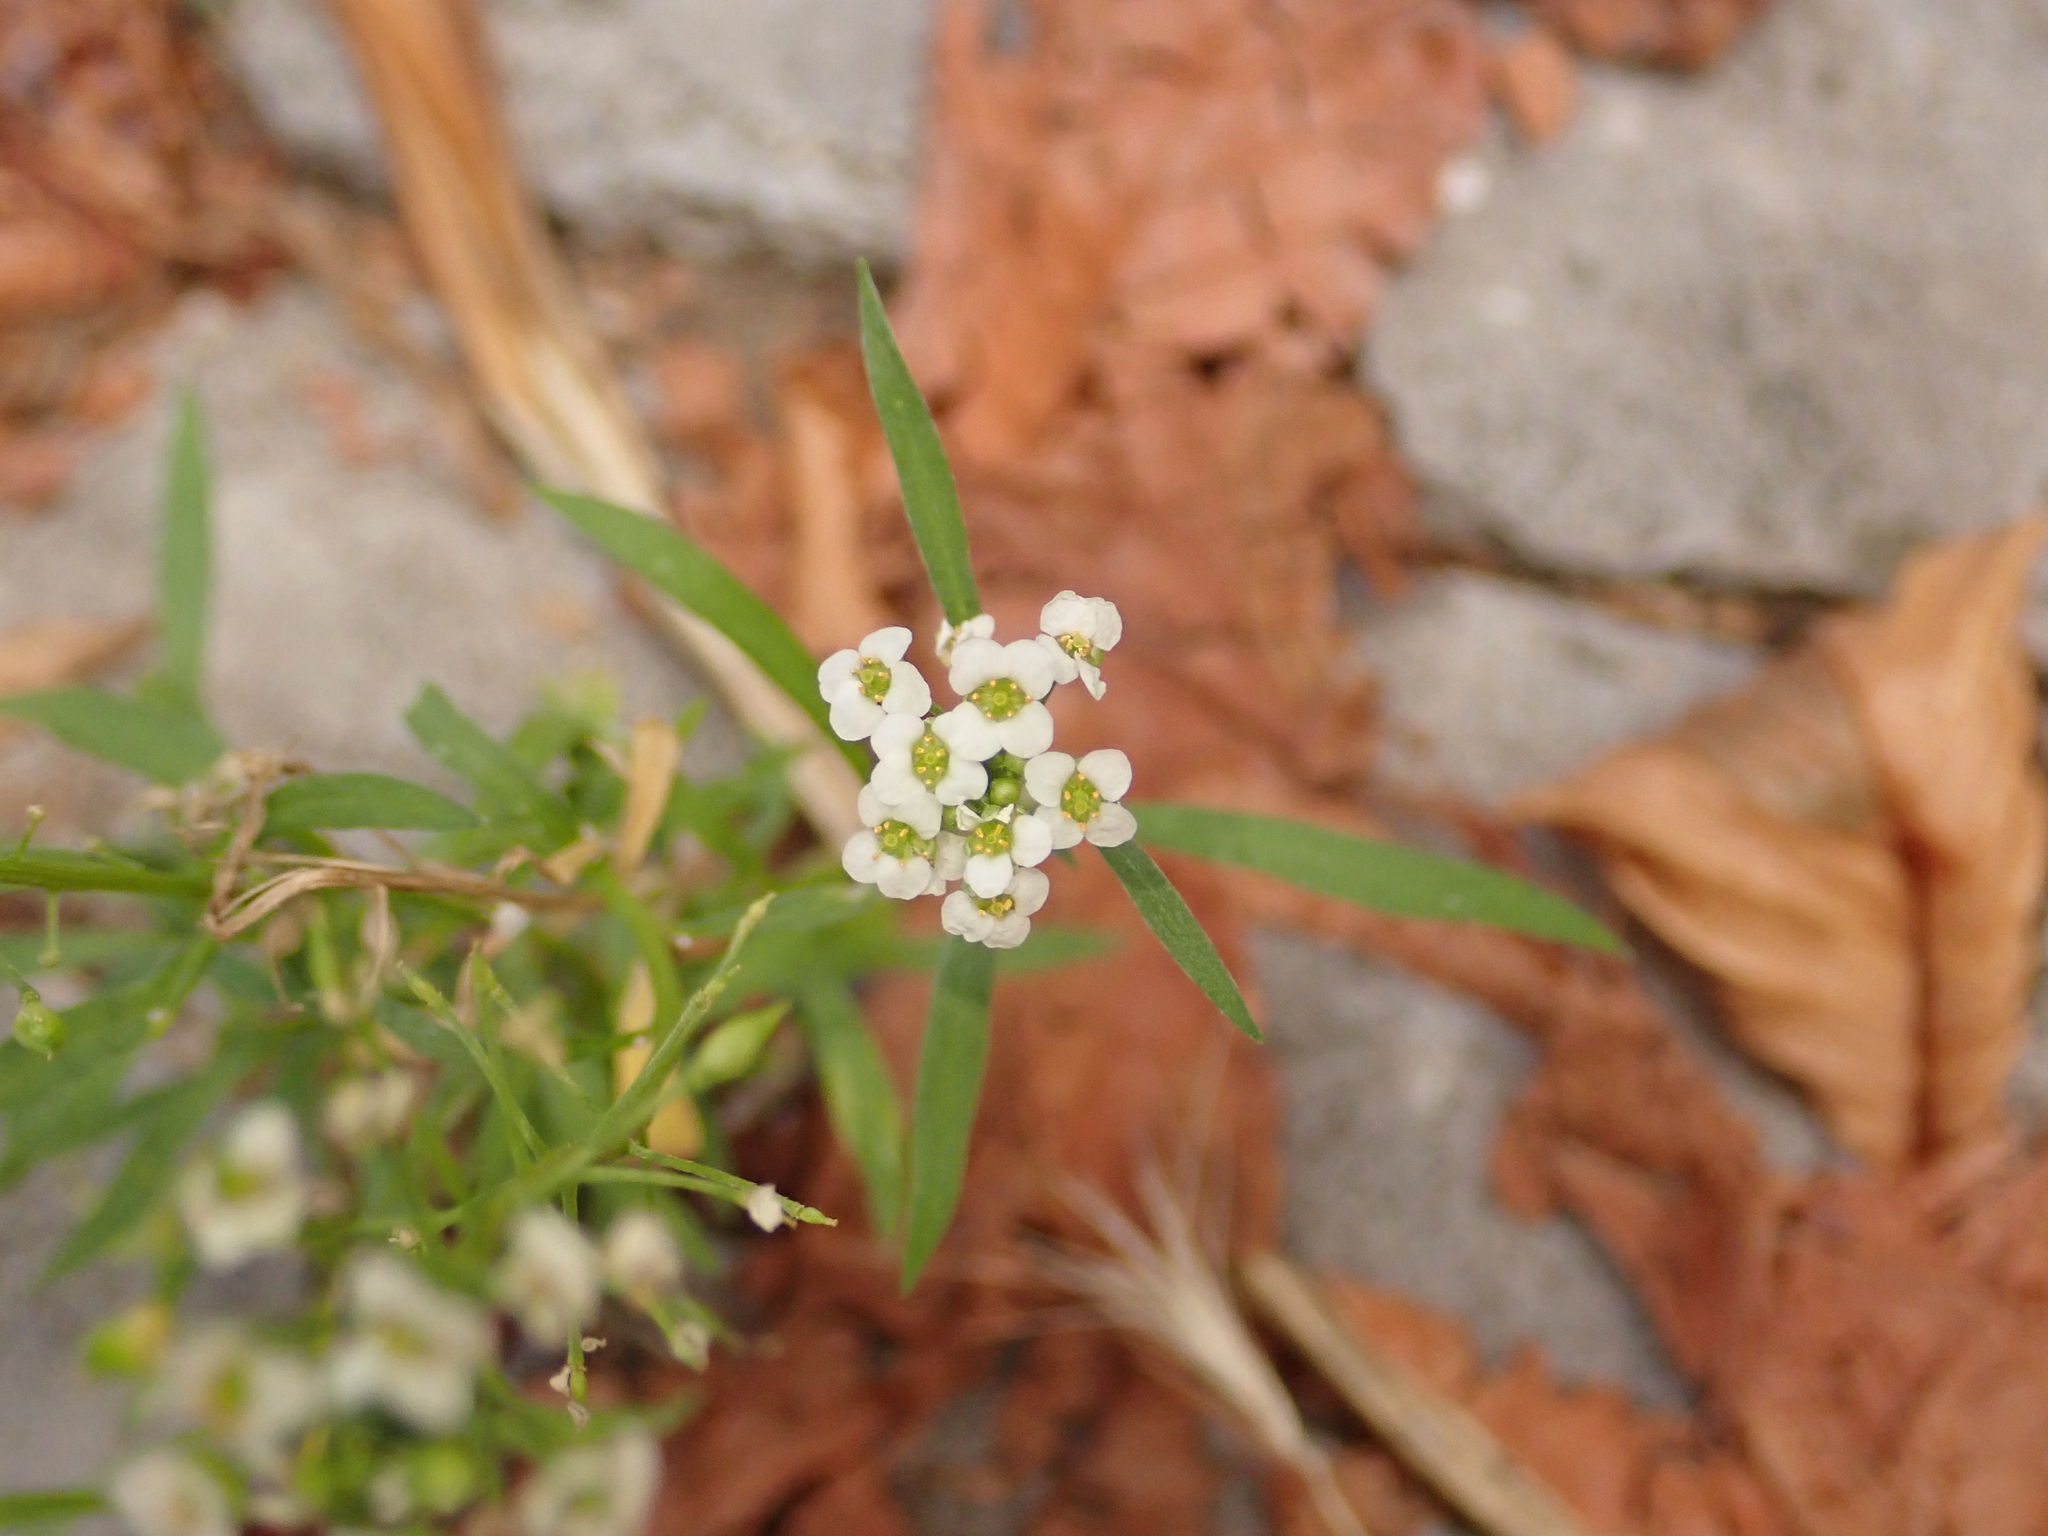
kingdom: Plantae
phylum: Tracheophyta
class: Magnoliopsida
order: Brassicales
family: Brassicaceae
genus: Lobularia
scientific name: Lobularia maritima
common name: Sweet alison
